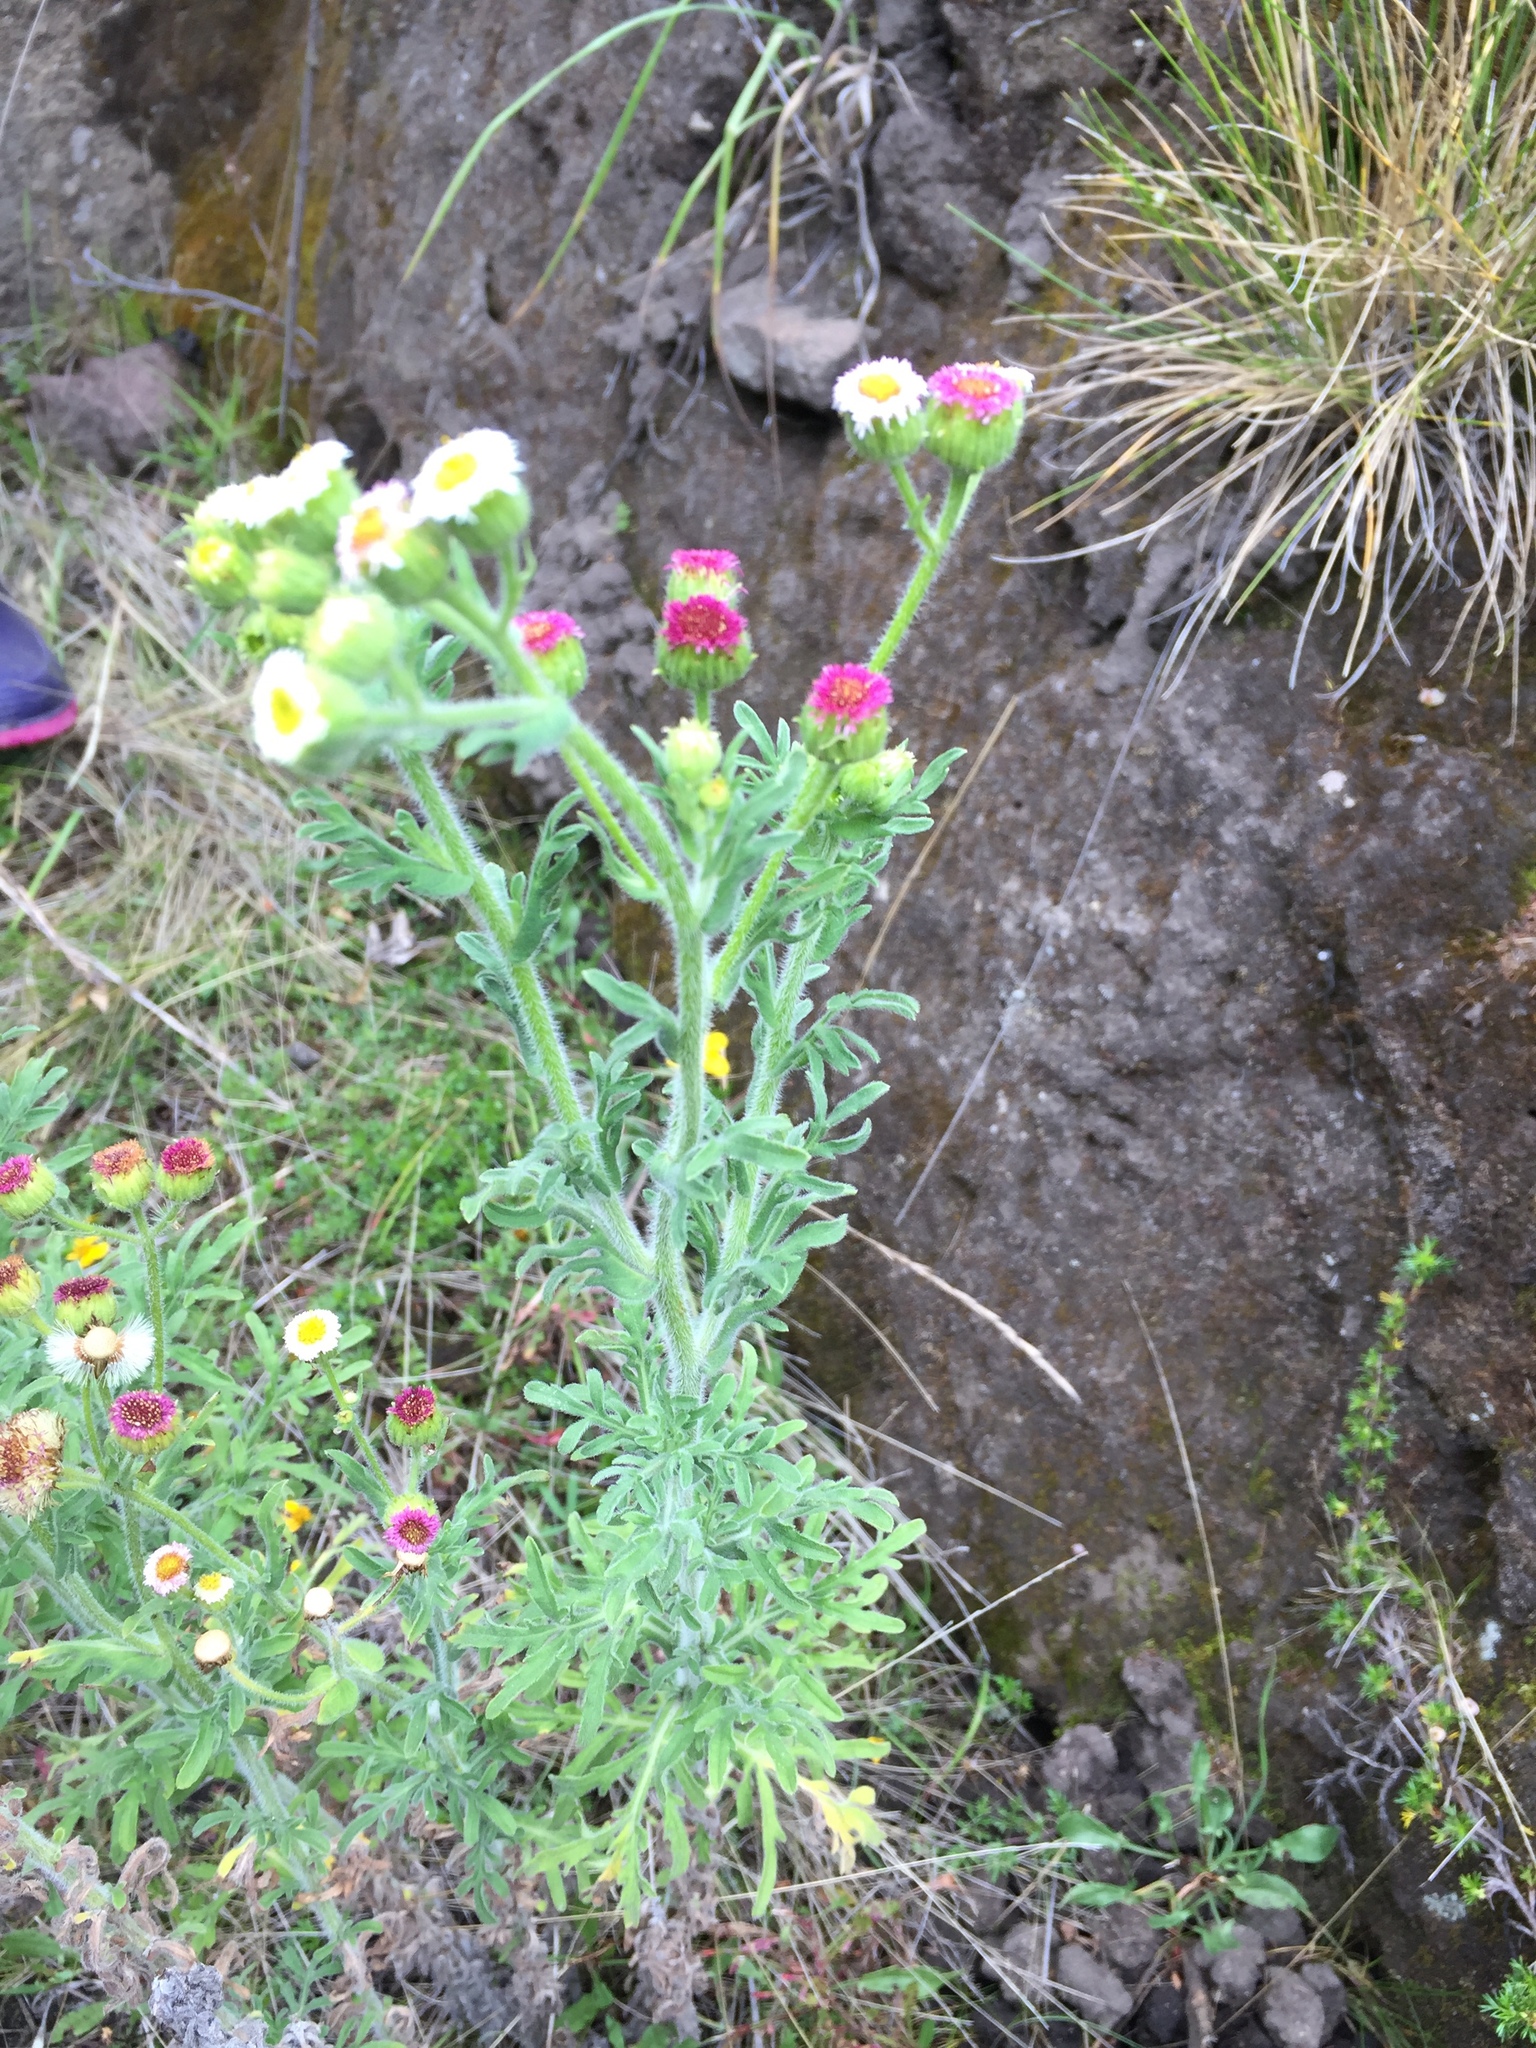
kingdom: Plantae
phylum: Tracheophyta
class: Magnoliopsida
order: Asterales
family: Asteraceae
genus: Erigeron
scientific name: Erigeron apiculatus
